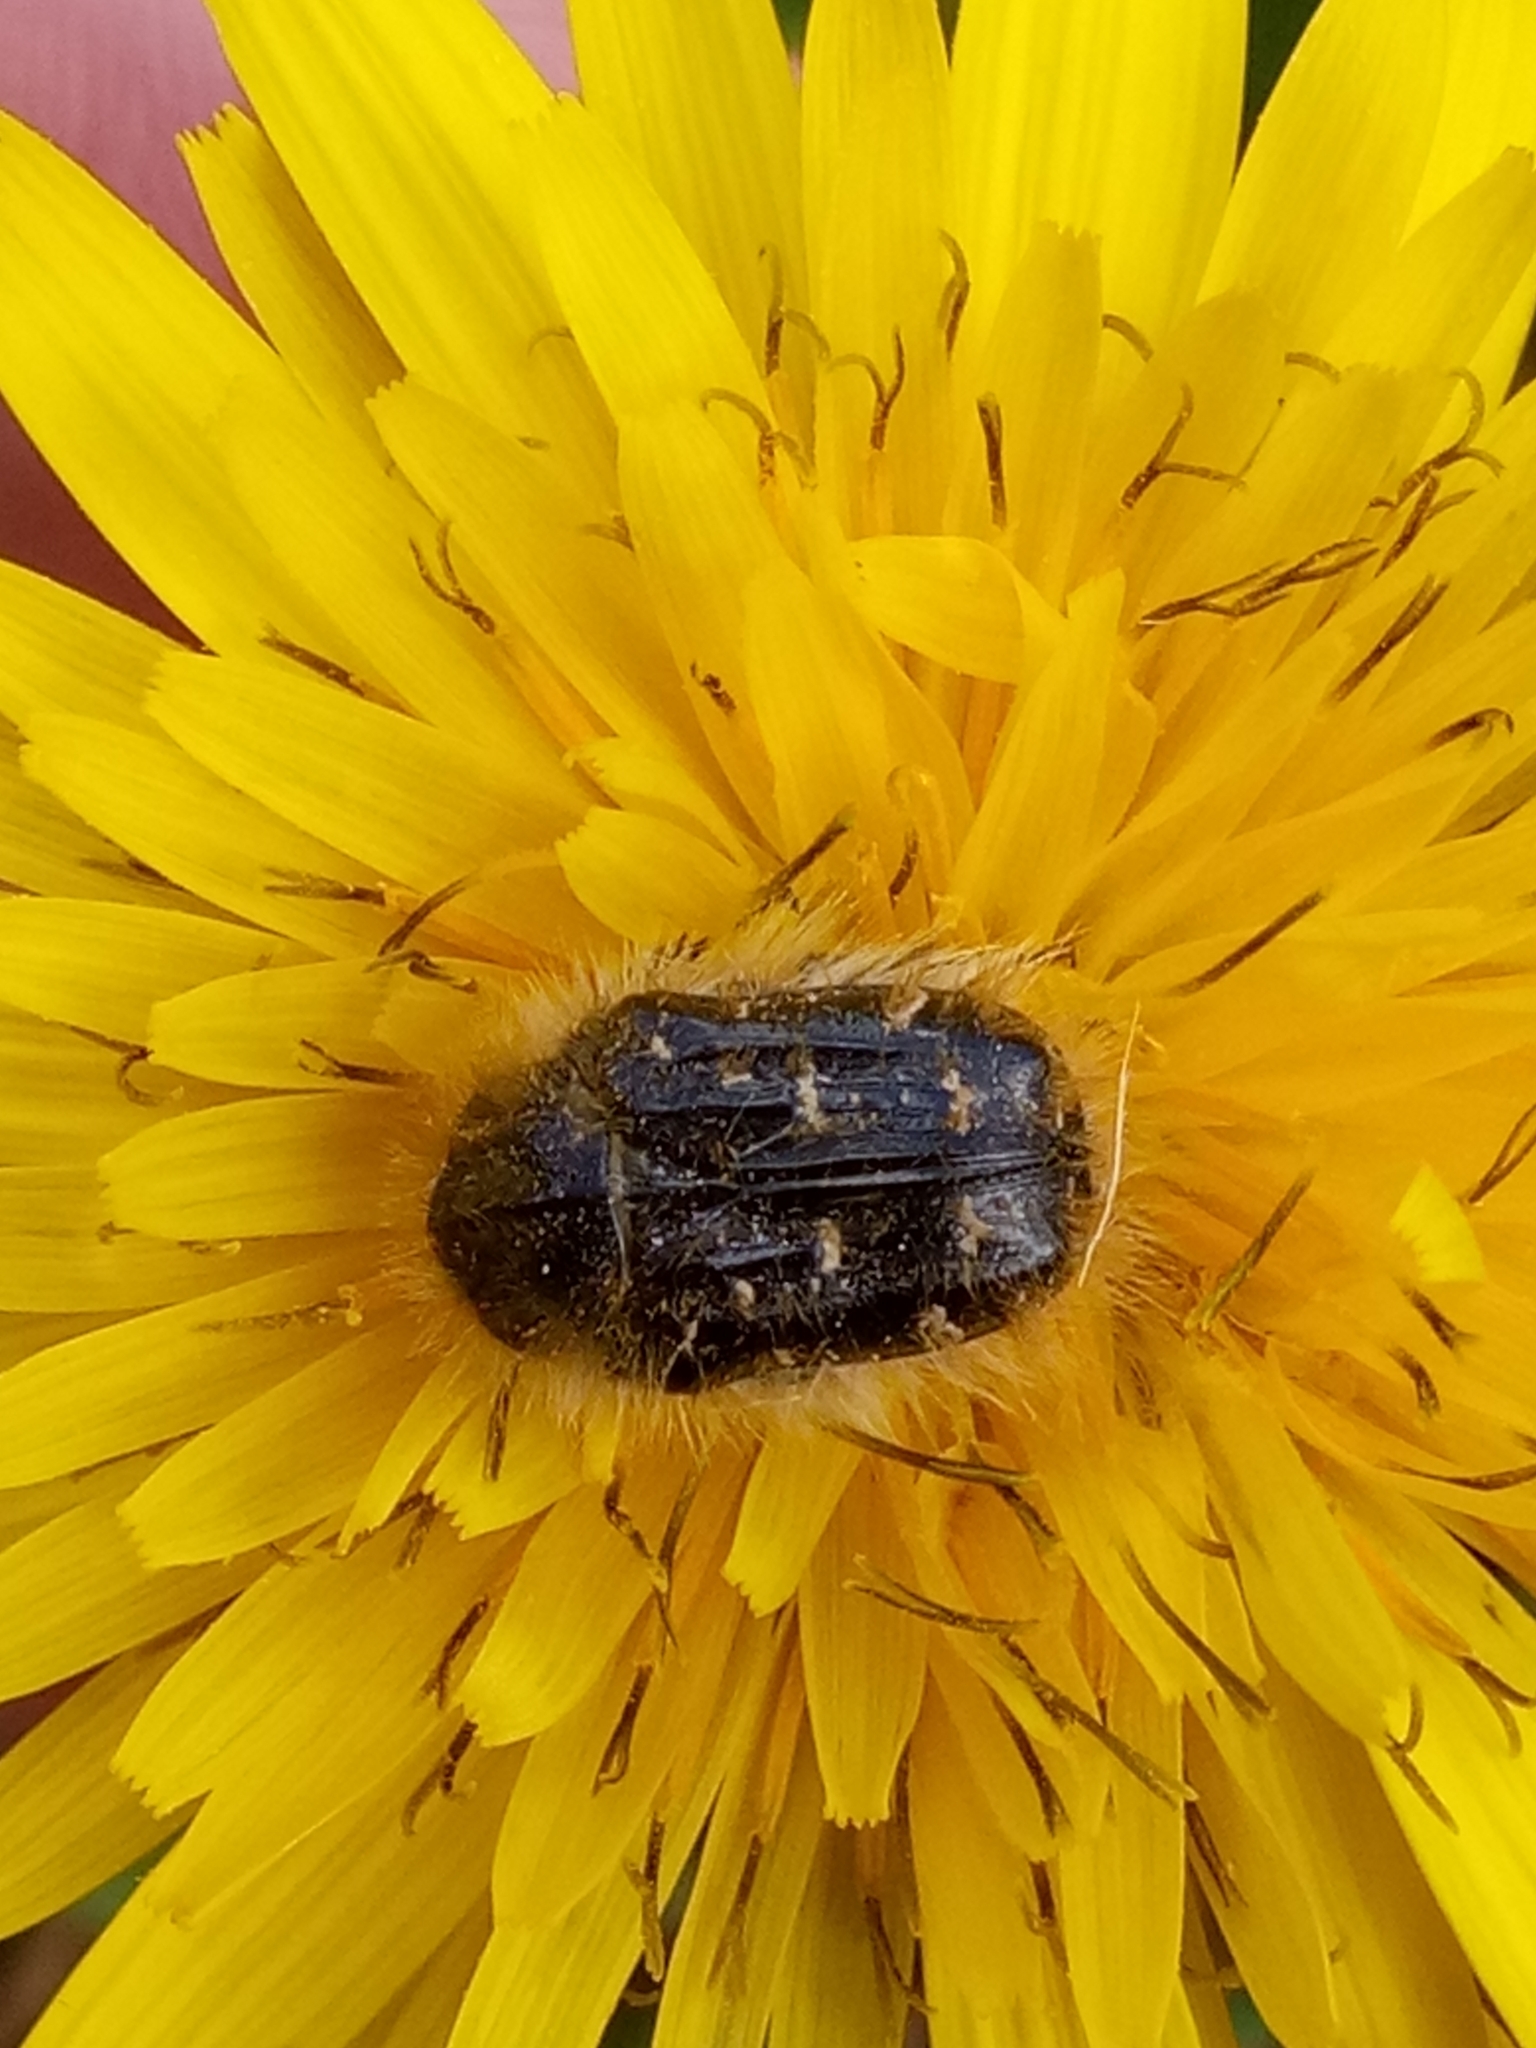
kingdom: Animalia
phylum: Arthropoda
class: Insecta
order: Coleoptera
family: Scarabaeidae
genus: Tropinota
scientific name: Tropinota squalida
